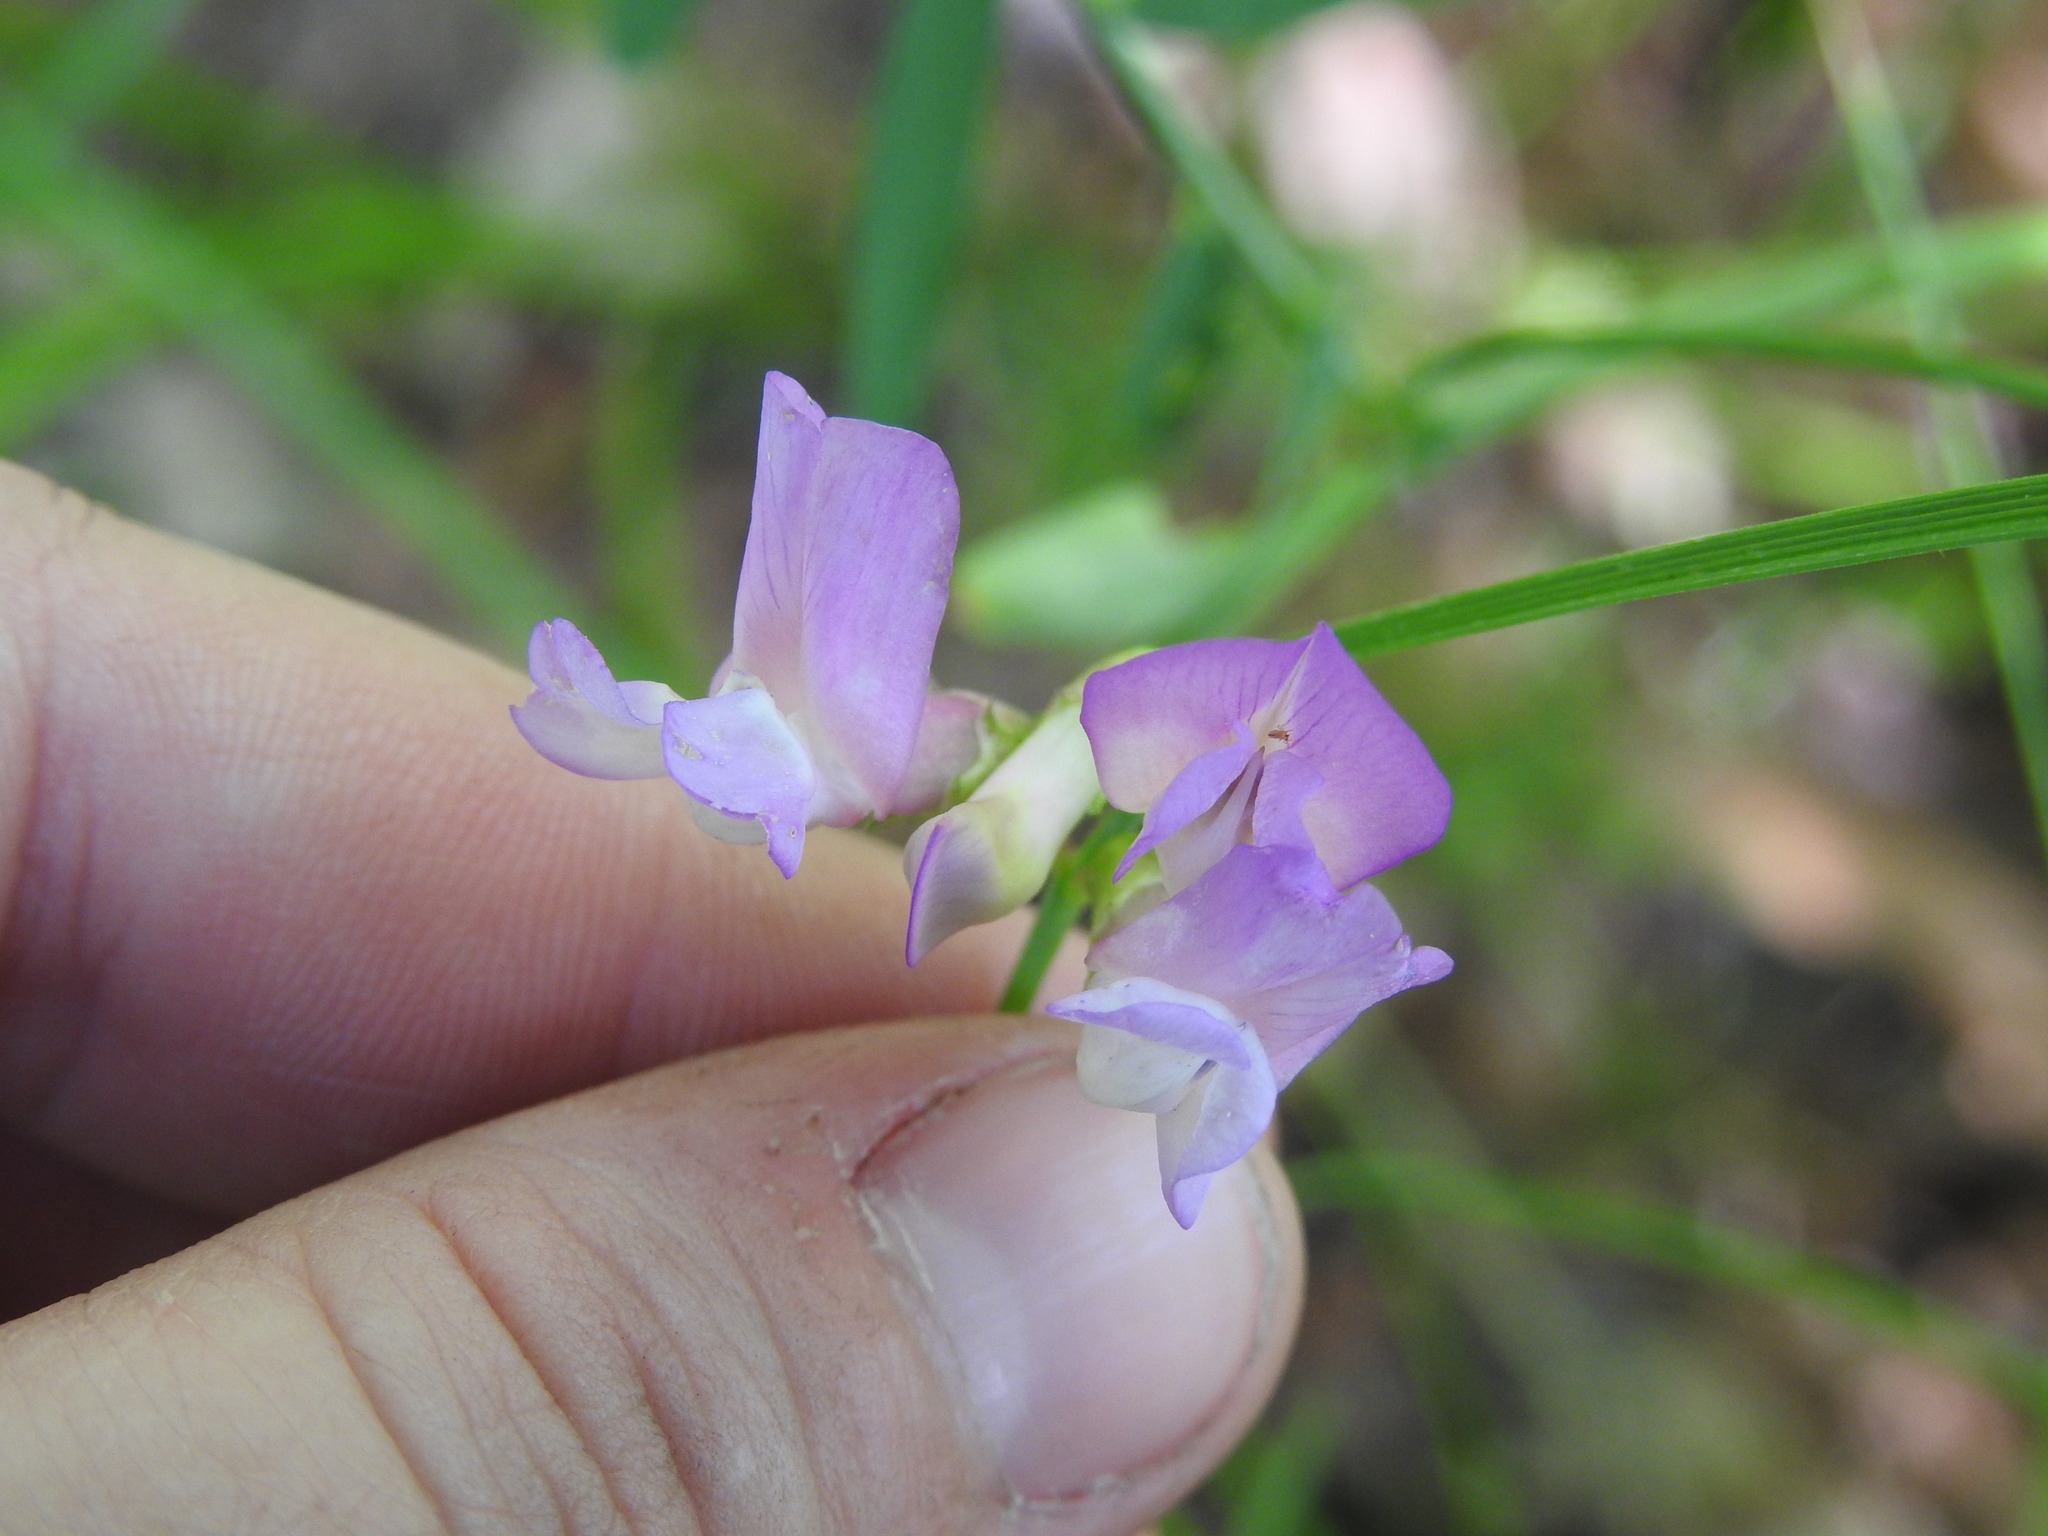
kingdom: Plantae
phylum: Tracheophyta
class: Magnoliopsida
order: Fabales
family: Fabaceae
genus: Vicia
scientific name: Vicia americana
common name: American vetch
